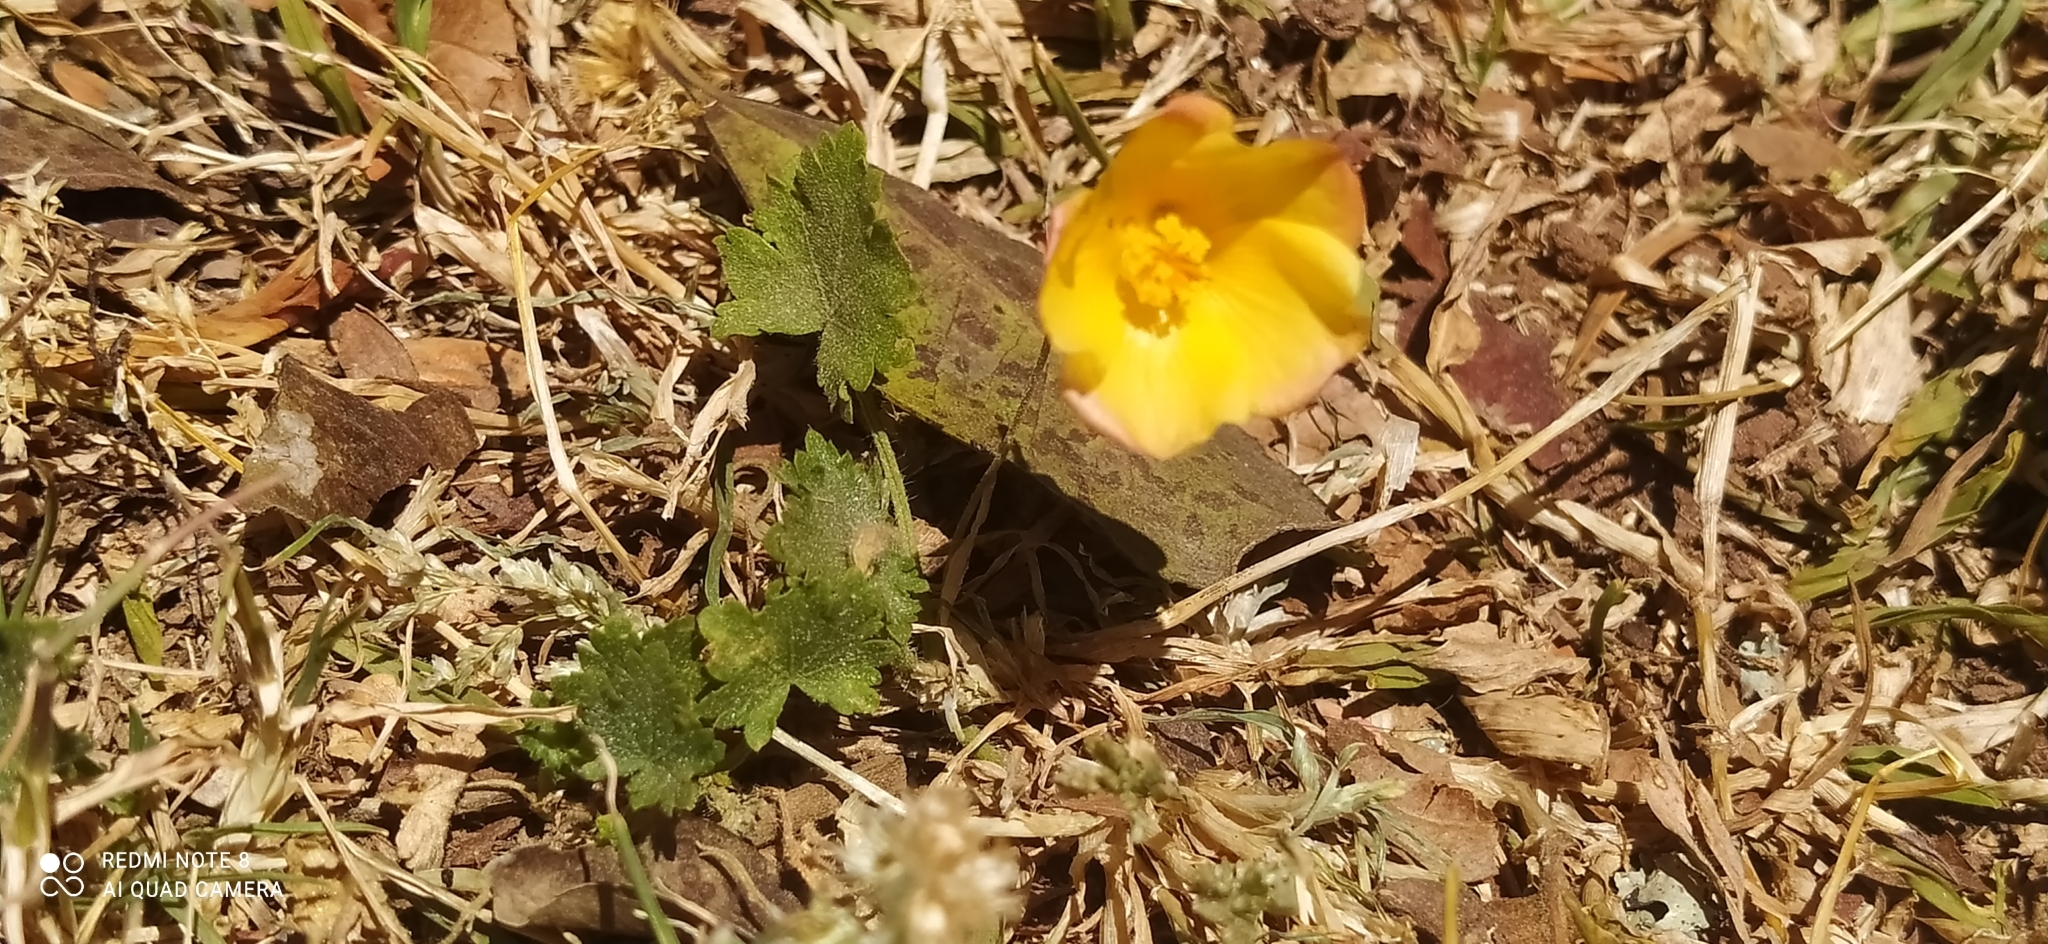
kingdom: Plantae
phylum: Tracheophyta
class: Magnoliopsida
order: Malvales
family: Malvaceae
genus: Modiolastrum
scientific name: Modiolastrum malvifolium
